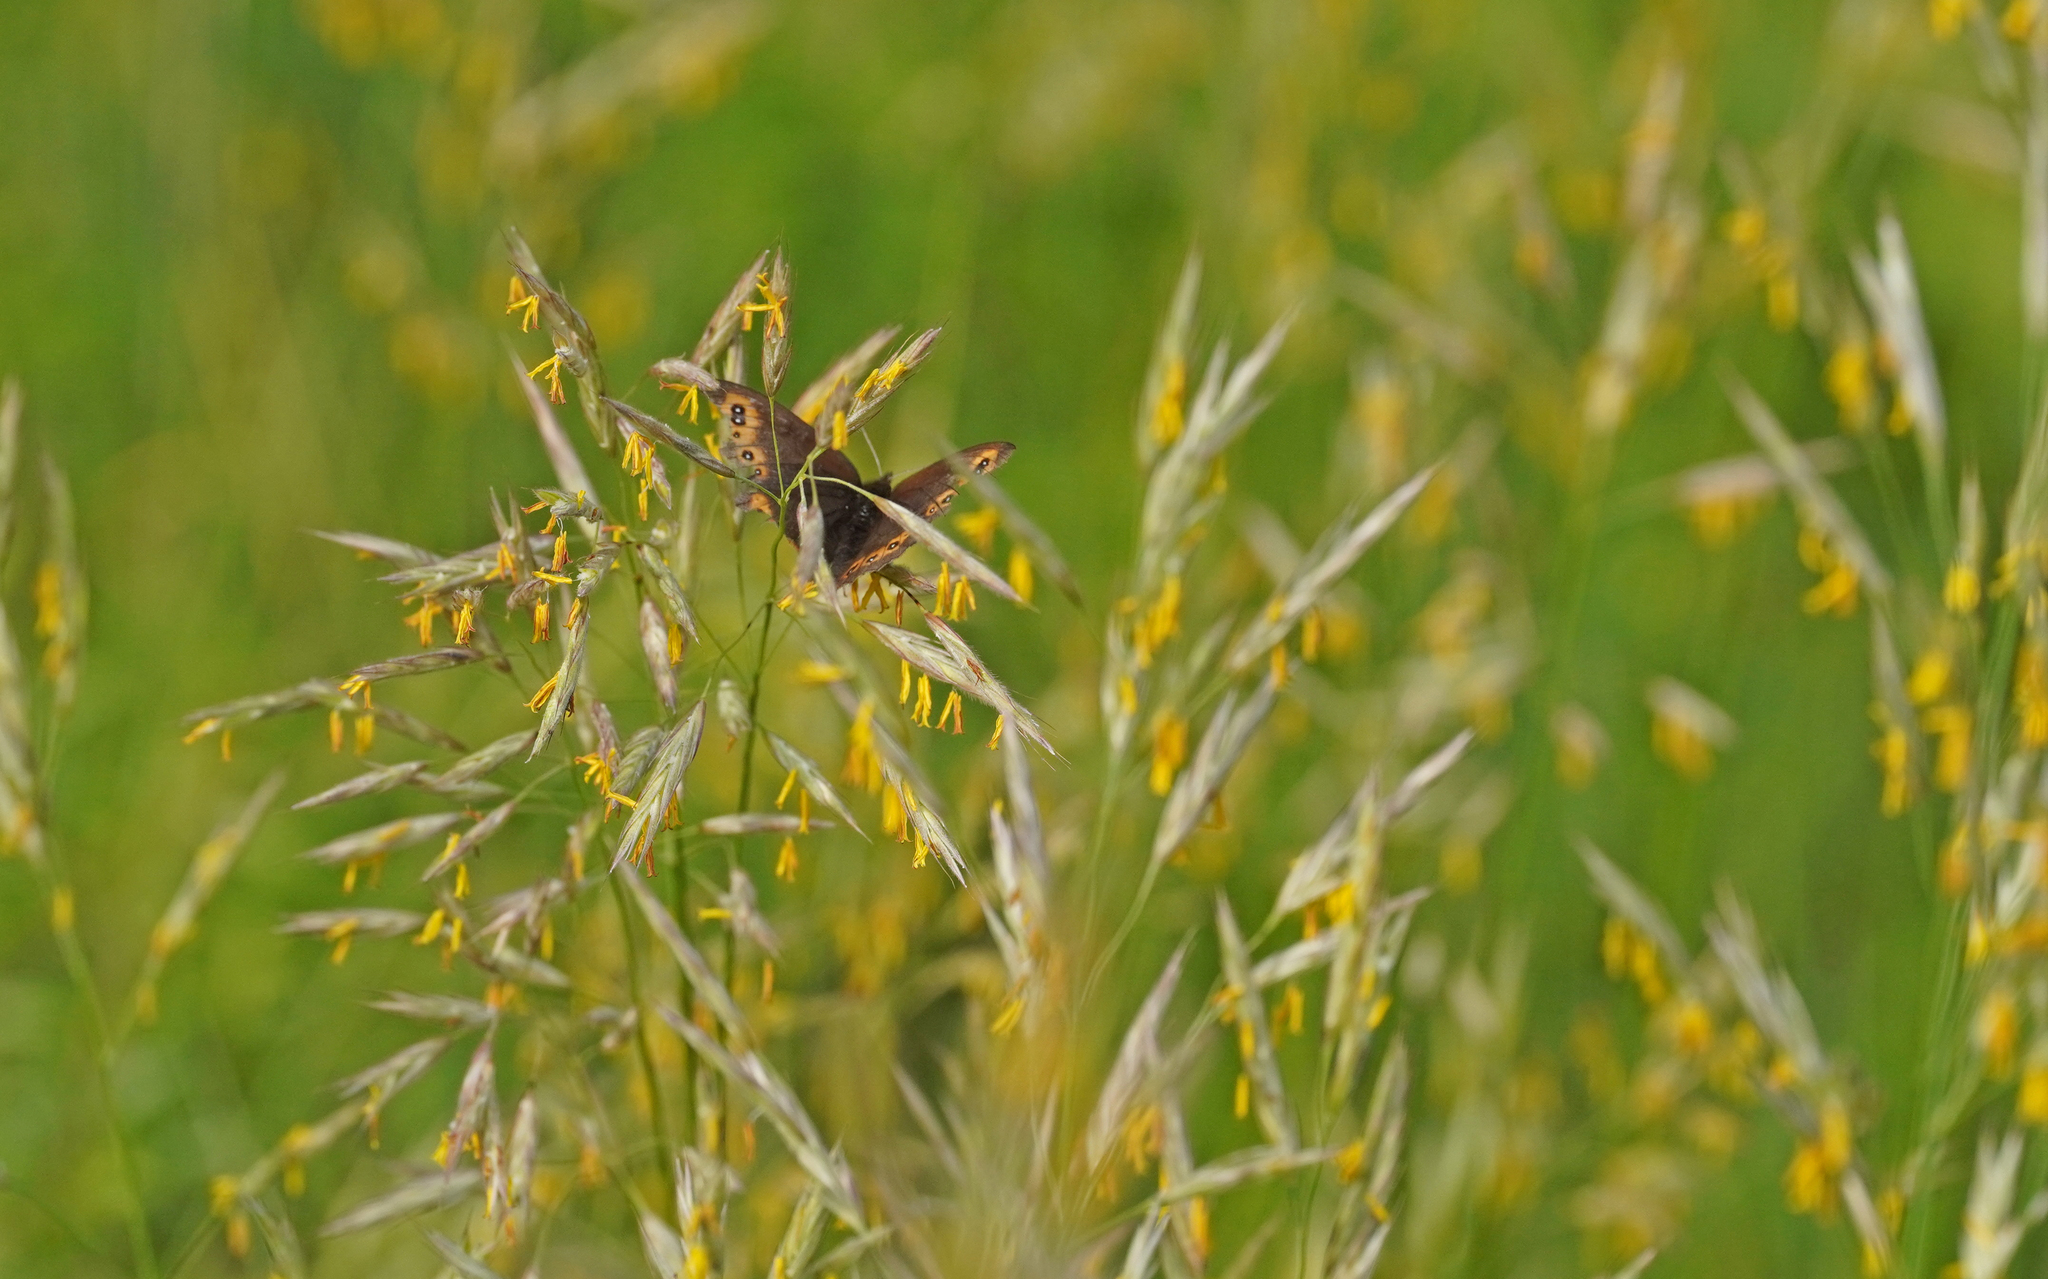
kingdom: Animalia
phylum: Arthropoda
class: Insecta
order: Lepidoptera
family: Nymphalidae
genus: Erebia
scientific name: Erebia medusa
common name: Woodland ringlet
